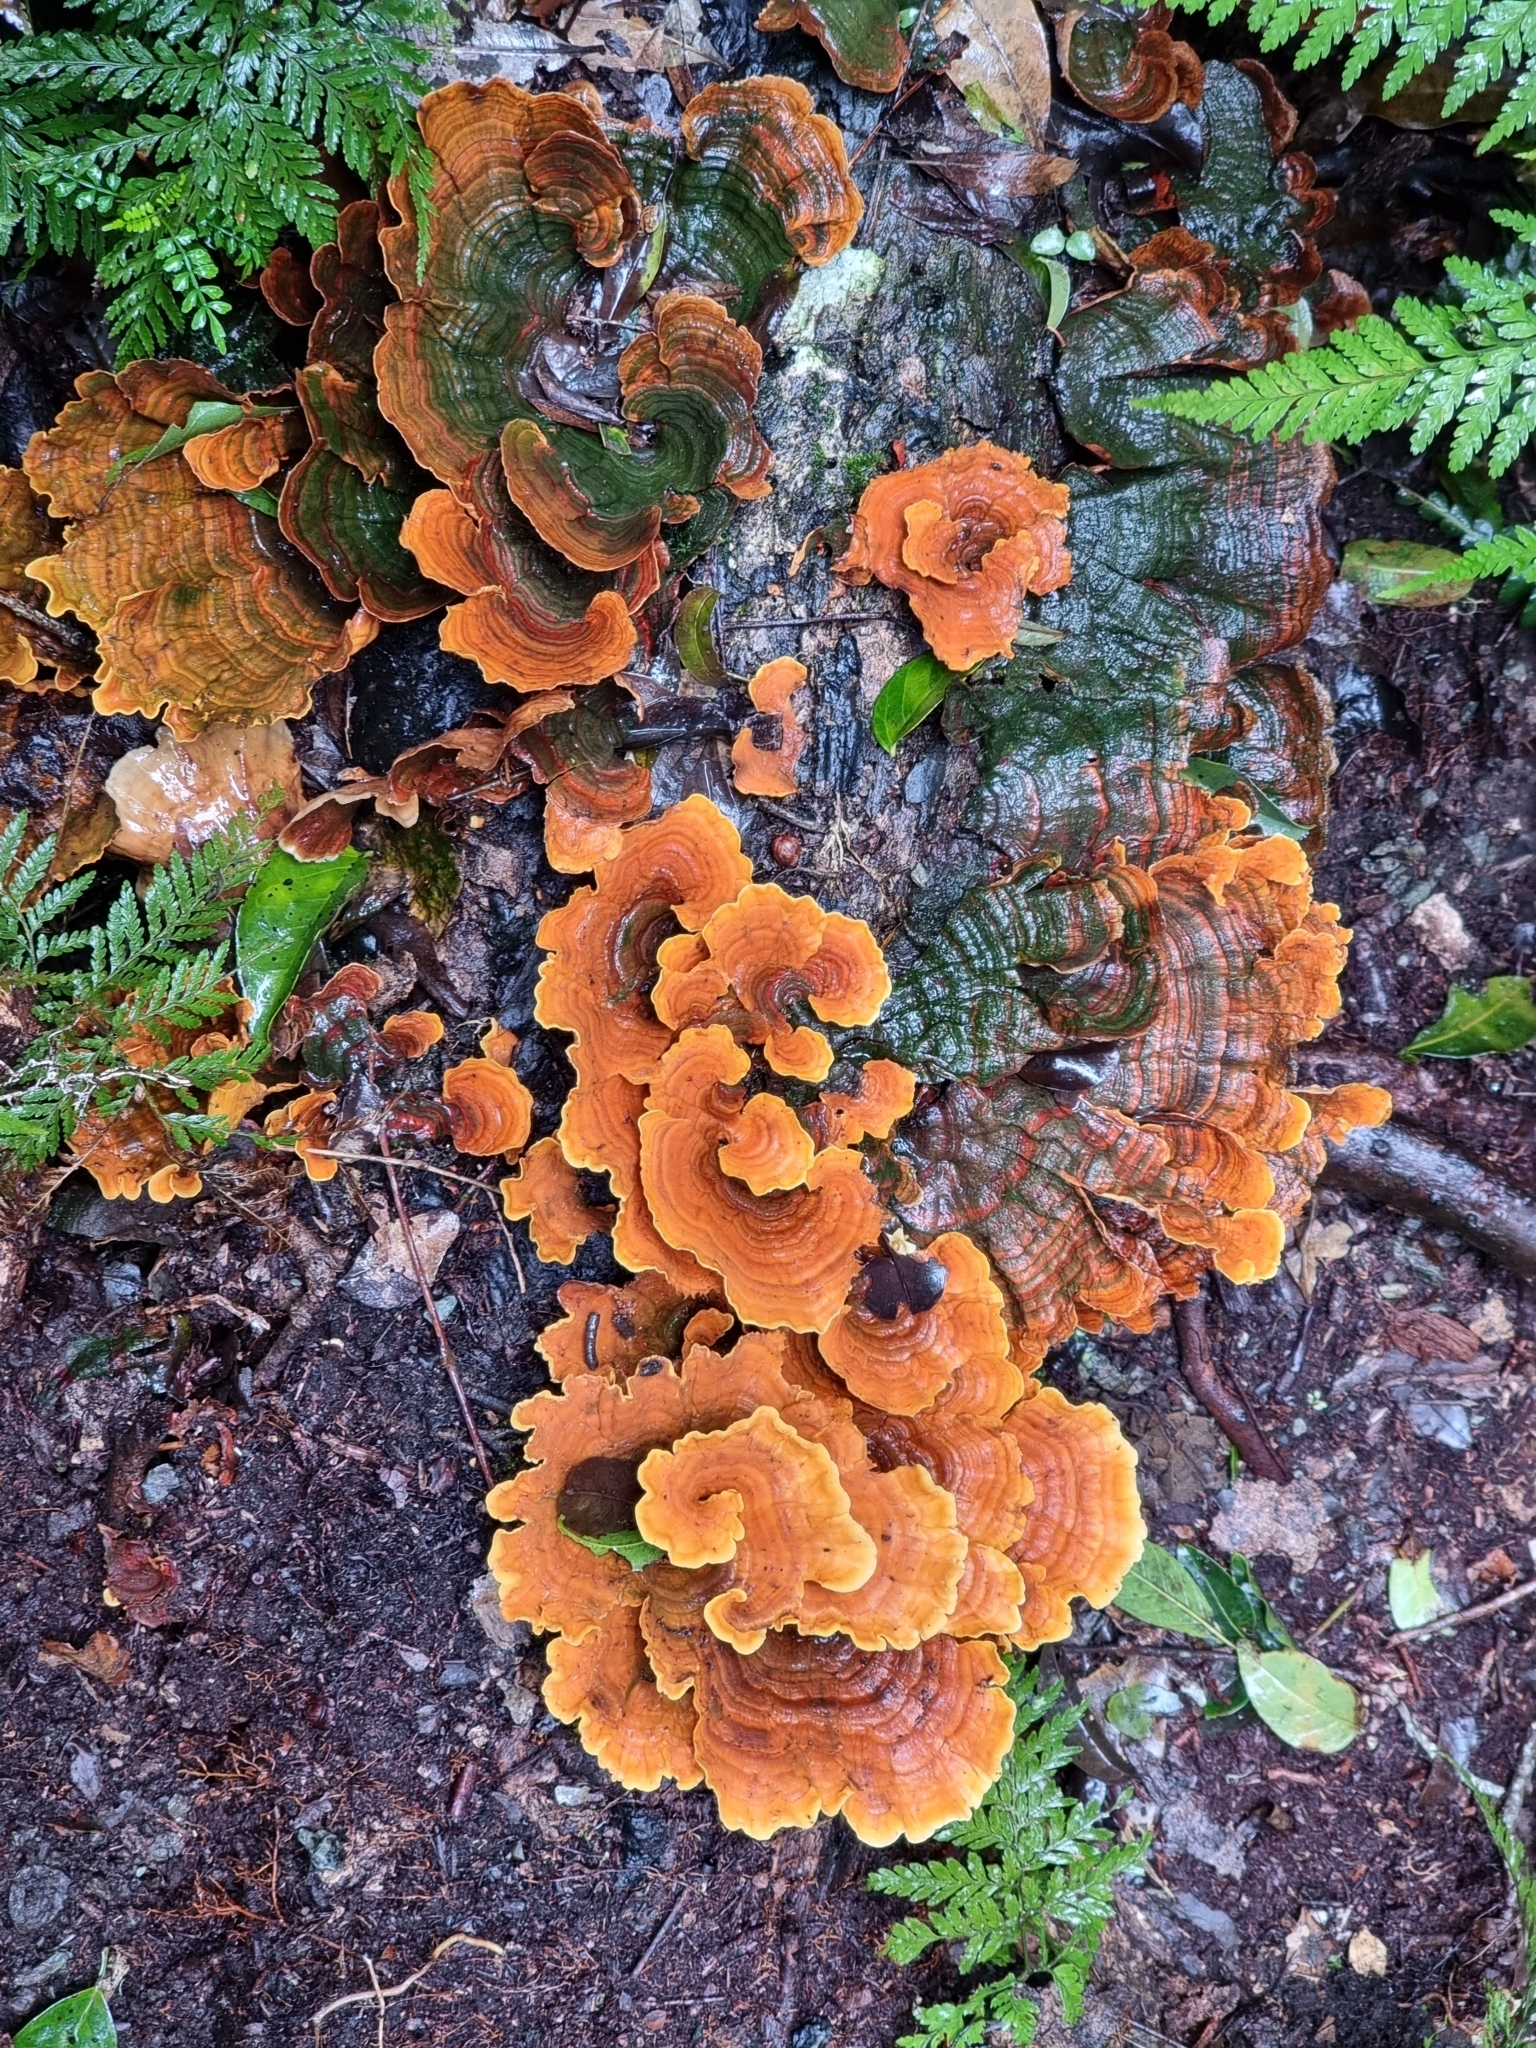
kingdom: Fungi
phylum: Basidiomycota
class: Agaricomycetes
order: Russulales
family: Stereaceae
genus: Stereum
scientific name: Stereum versicolor
